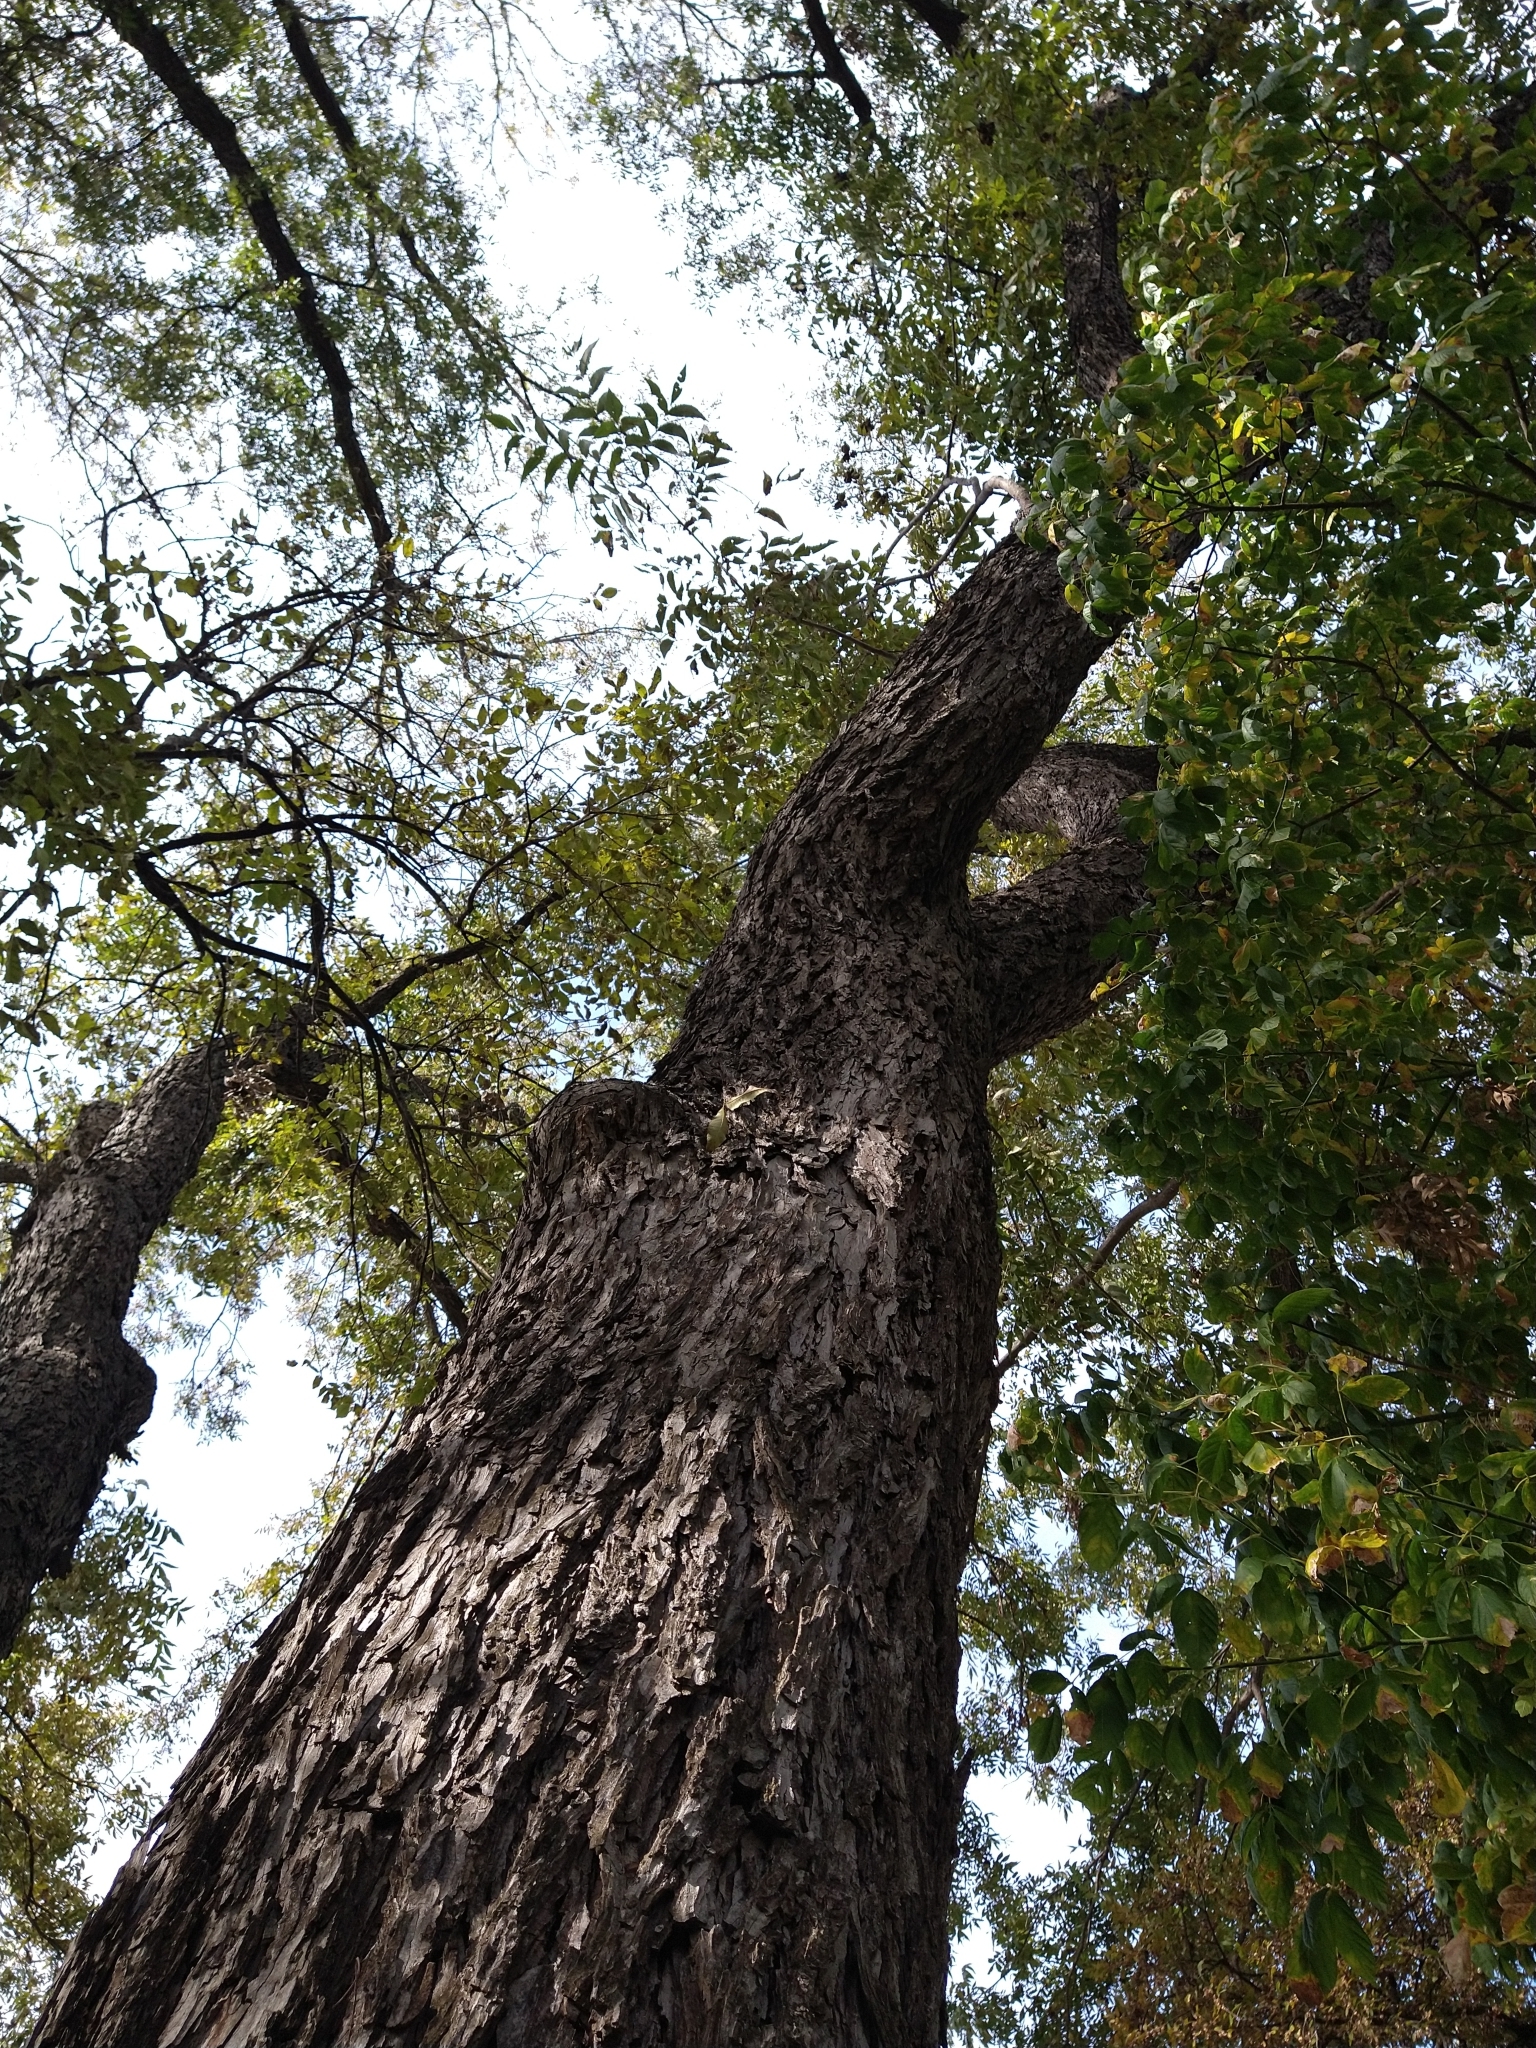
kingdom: Plantae
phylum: Tracheophyta
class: Magnoliopsida
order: Fagales
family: Juglandaceae
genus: Carya
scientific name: Carya illinoinensis
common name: Pecan
